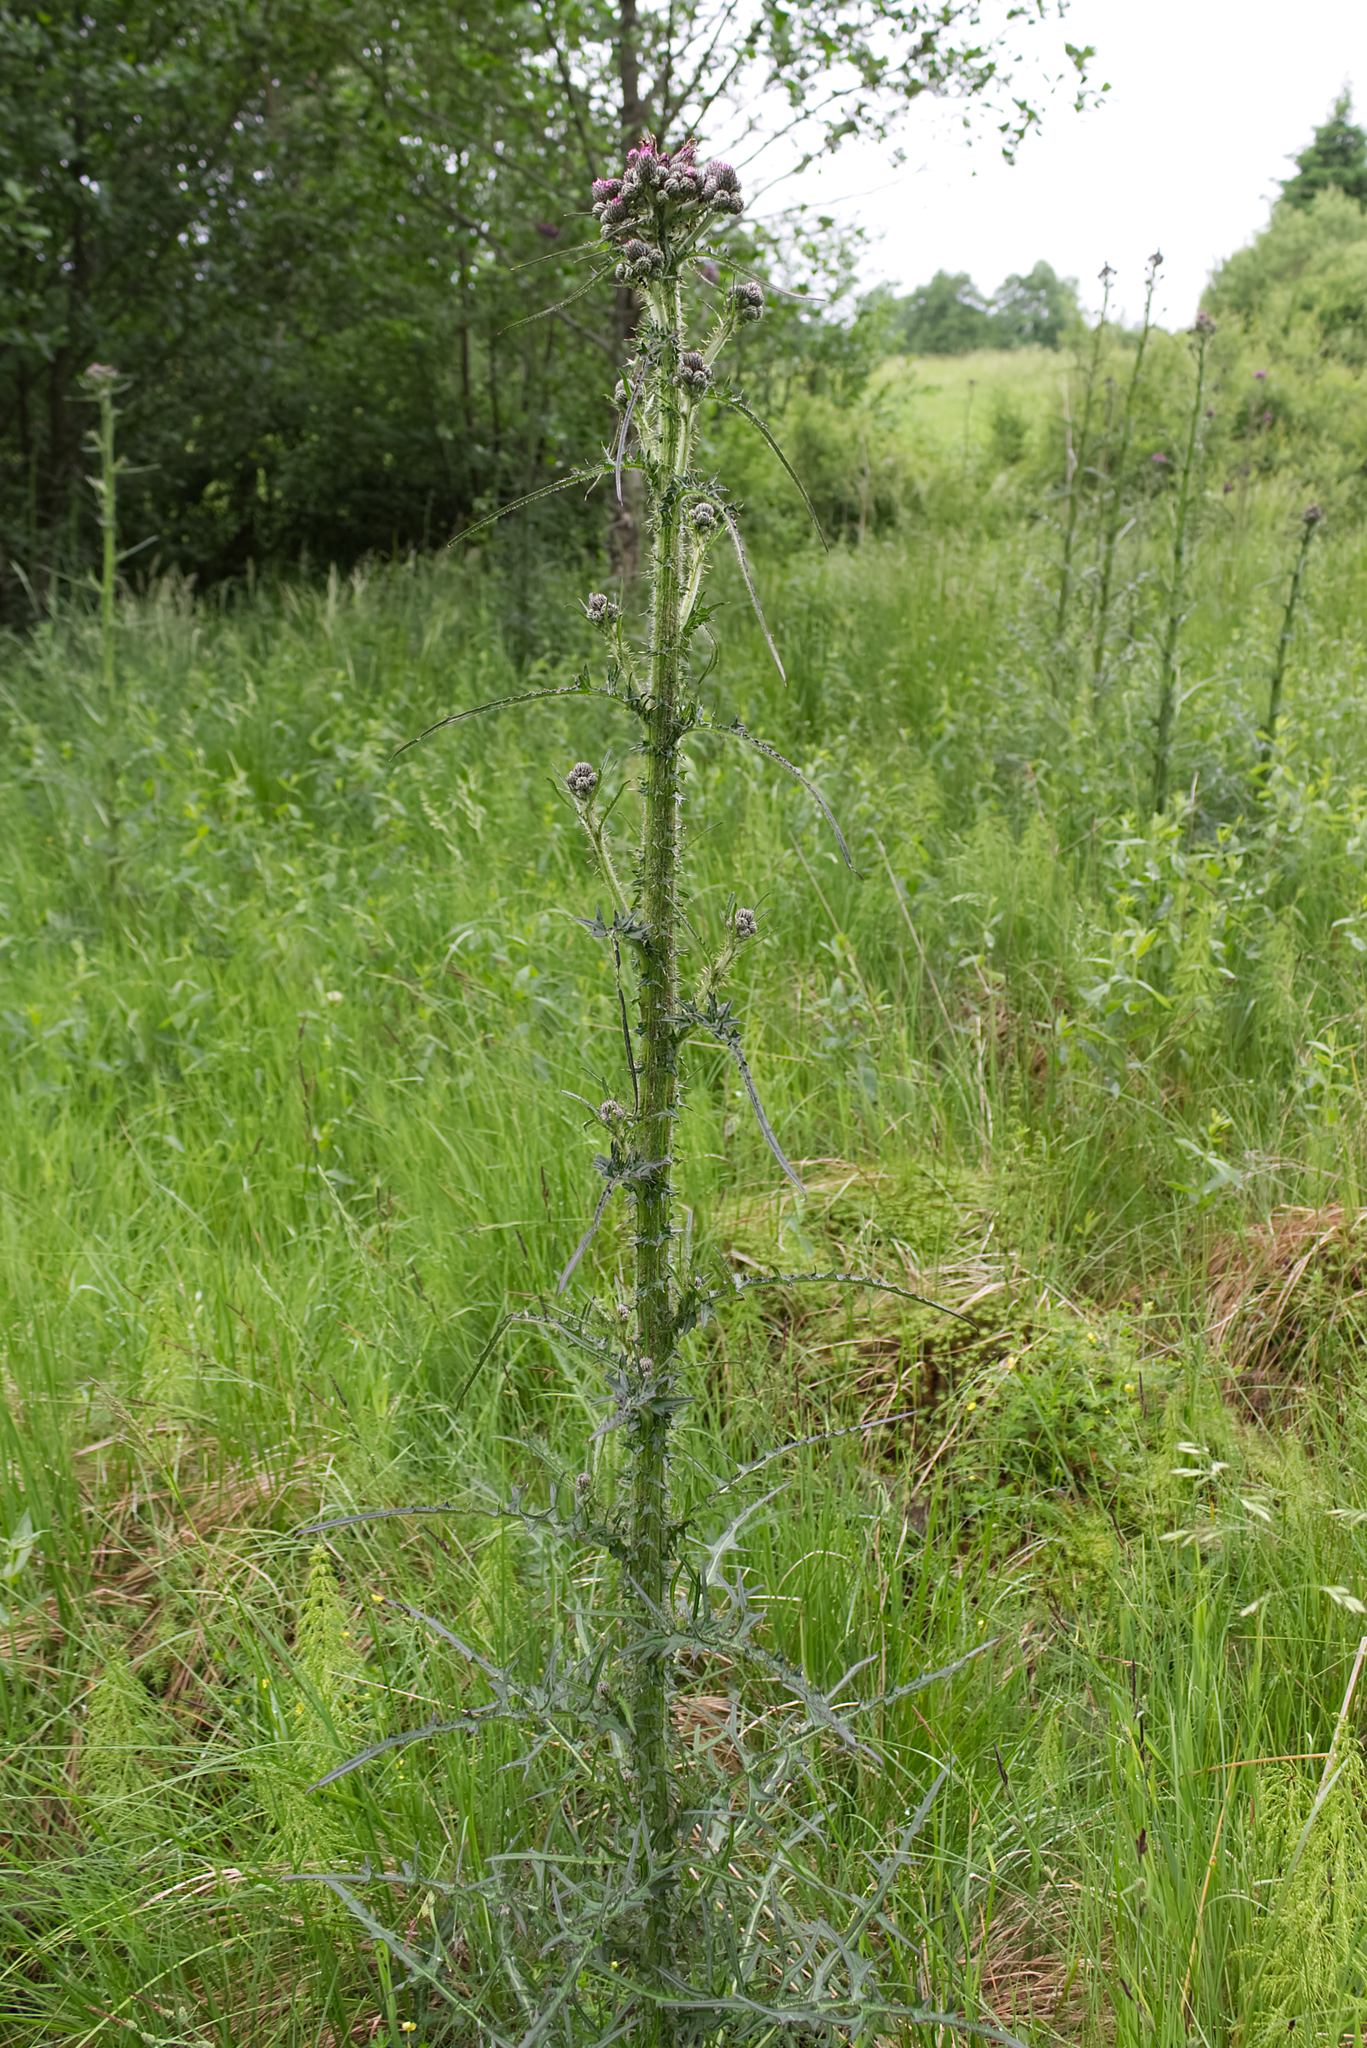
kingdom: Plantae
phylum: Tracheophyta
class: Magnoliopsida
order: Asterales
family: Asteraceae
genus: Cirsium
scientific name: Cirsium palustre
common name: Marsh thistle
